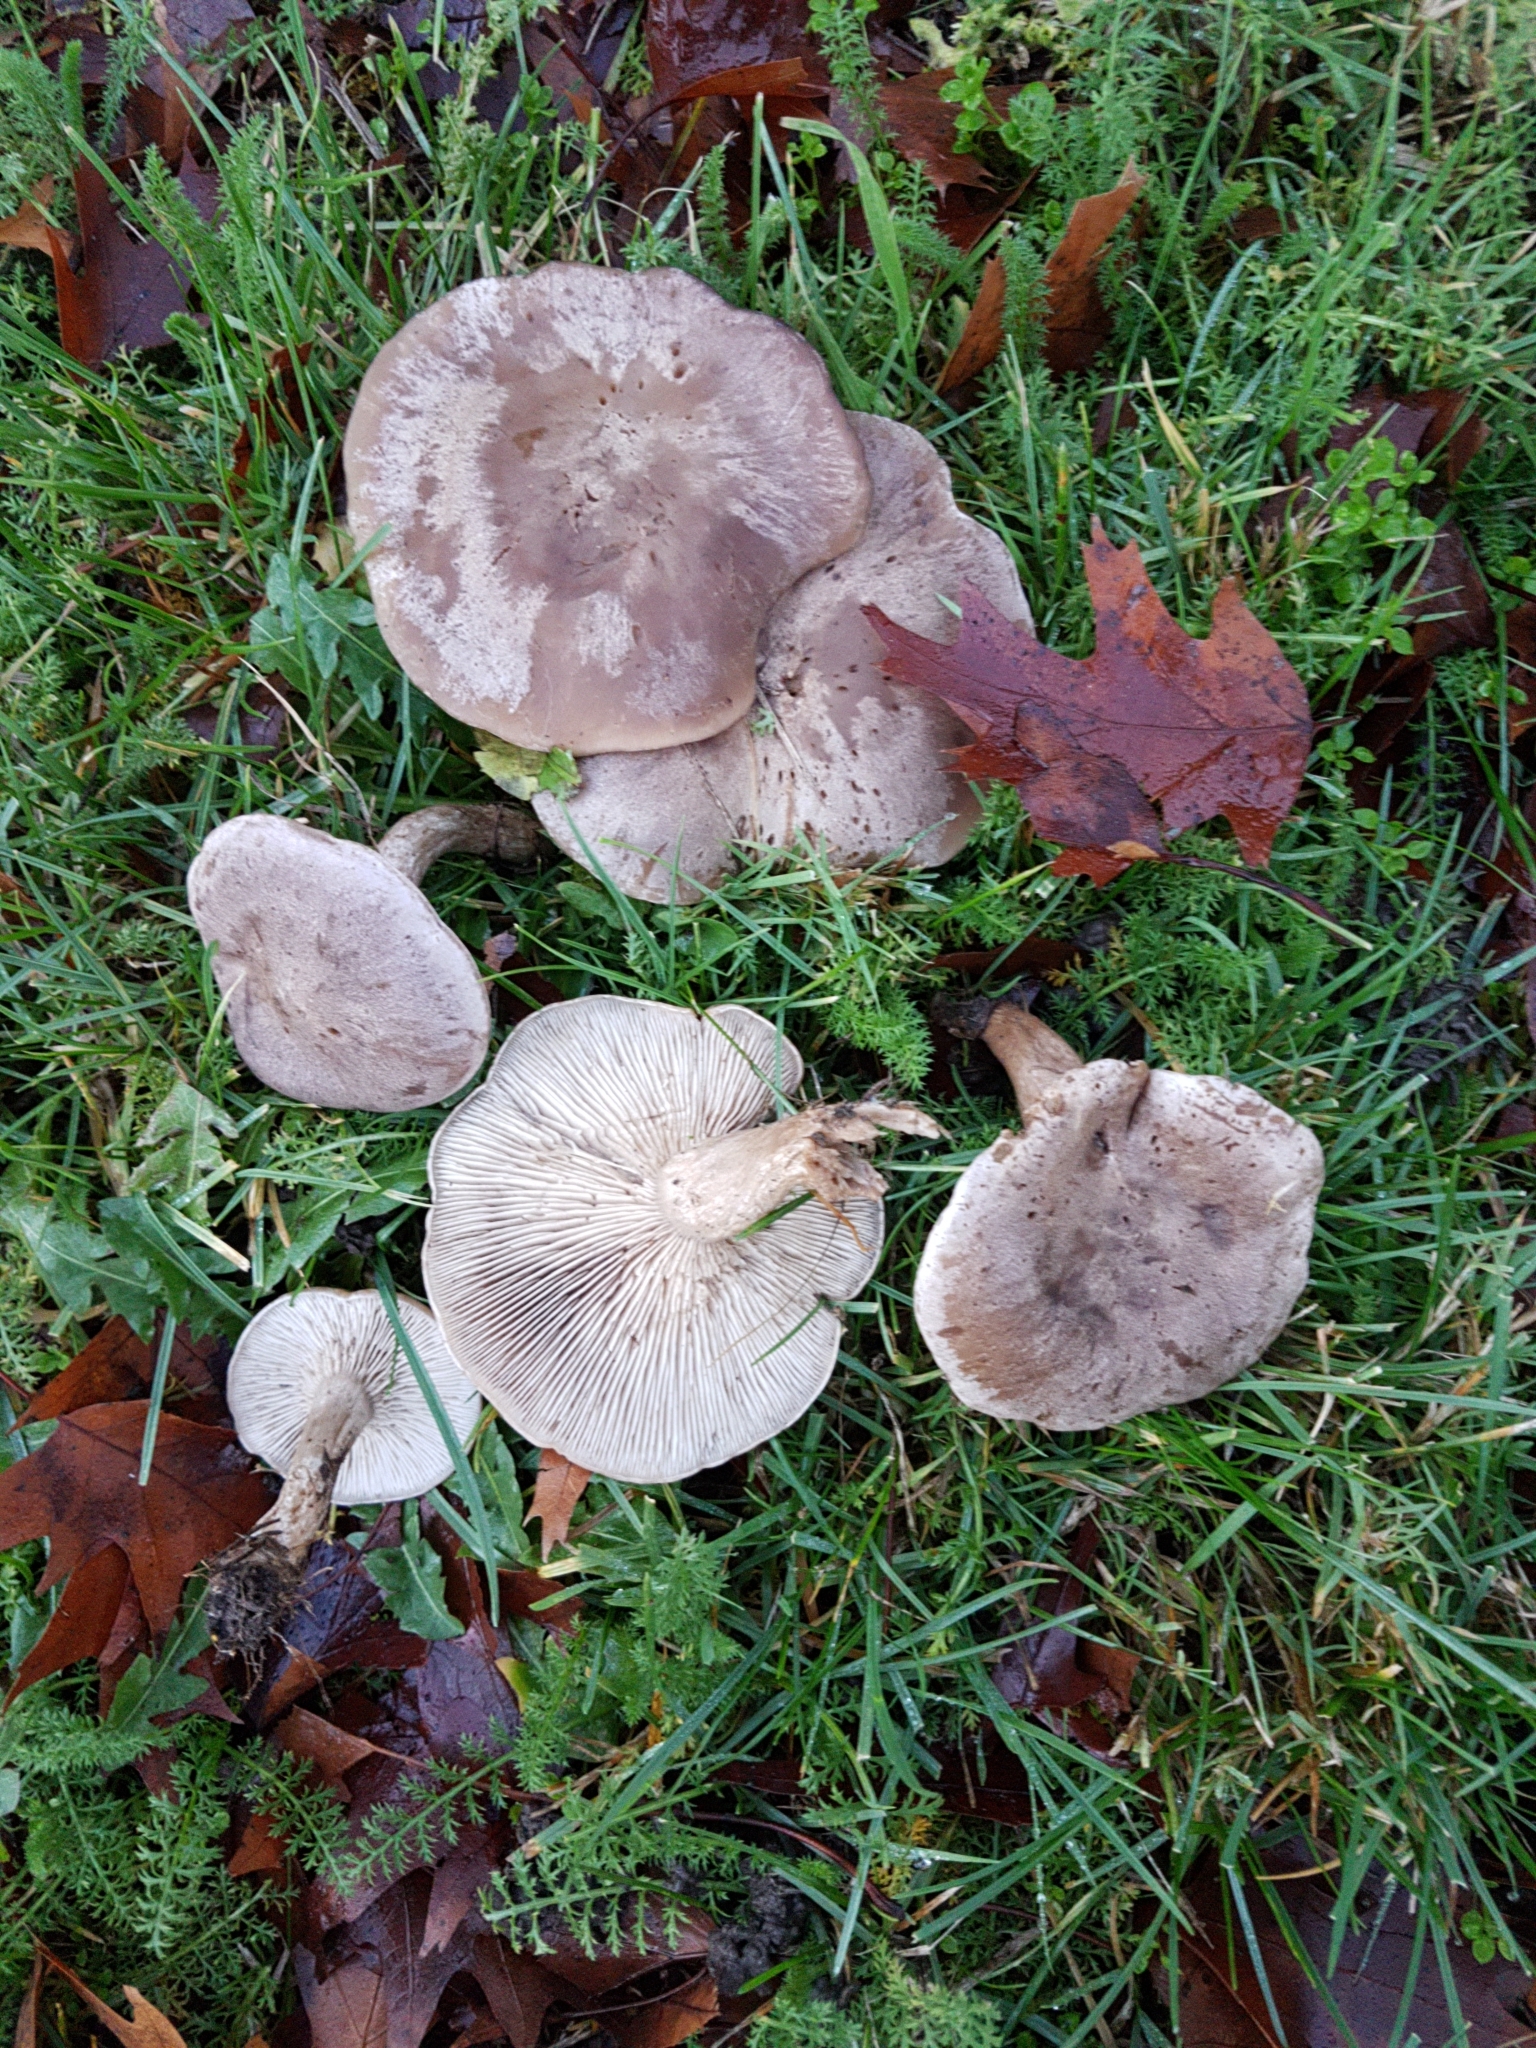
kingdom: Fungi
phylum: Basidiomycota
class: Agaricomycetes
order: Agaricales
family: Tricholomataceae
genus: Lepista
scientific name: Lepista luscina
